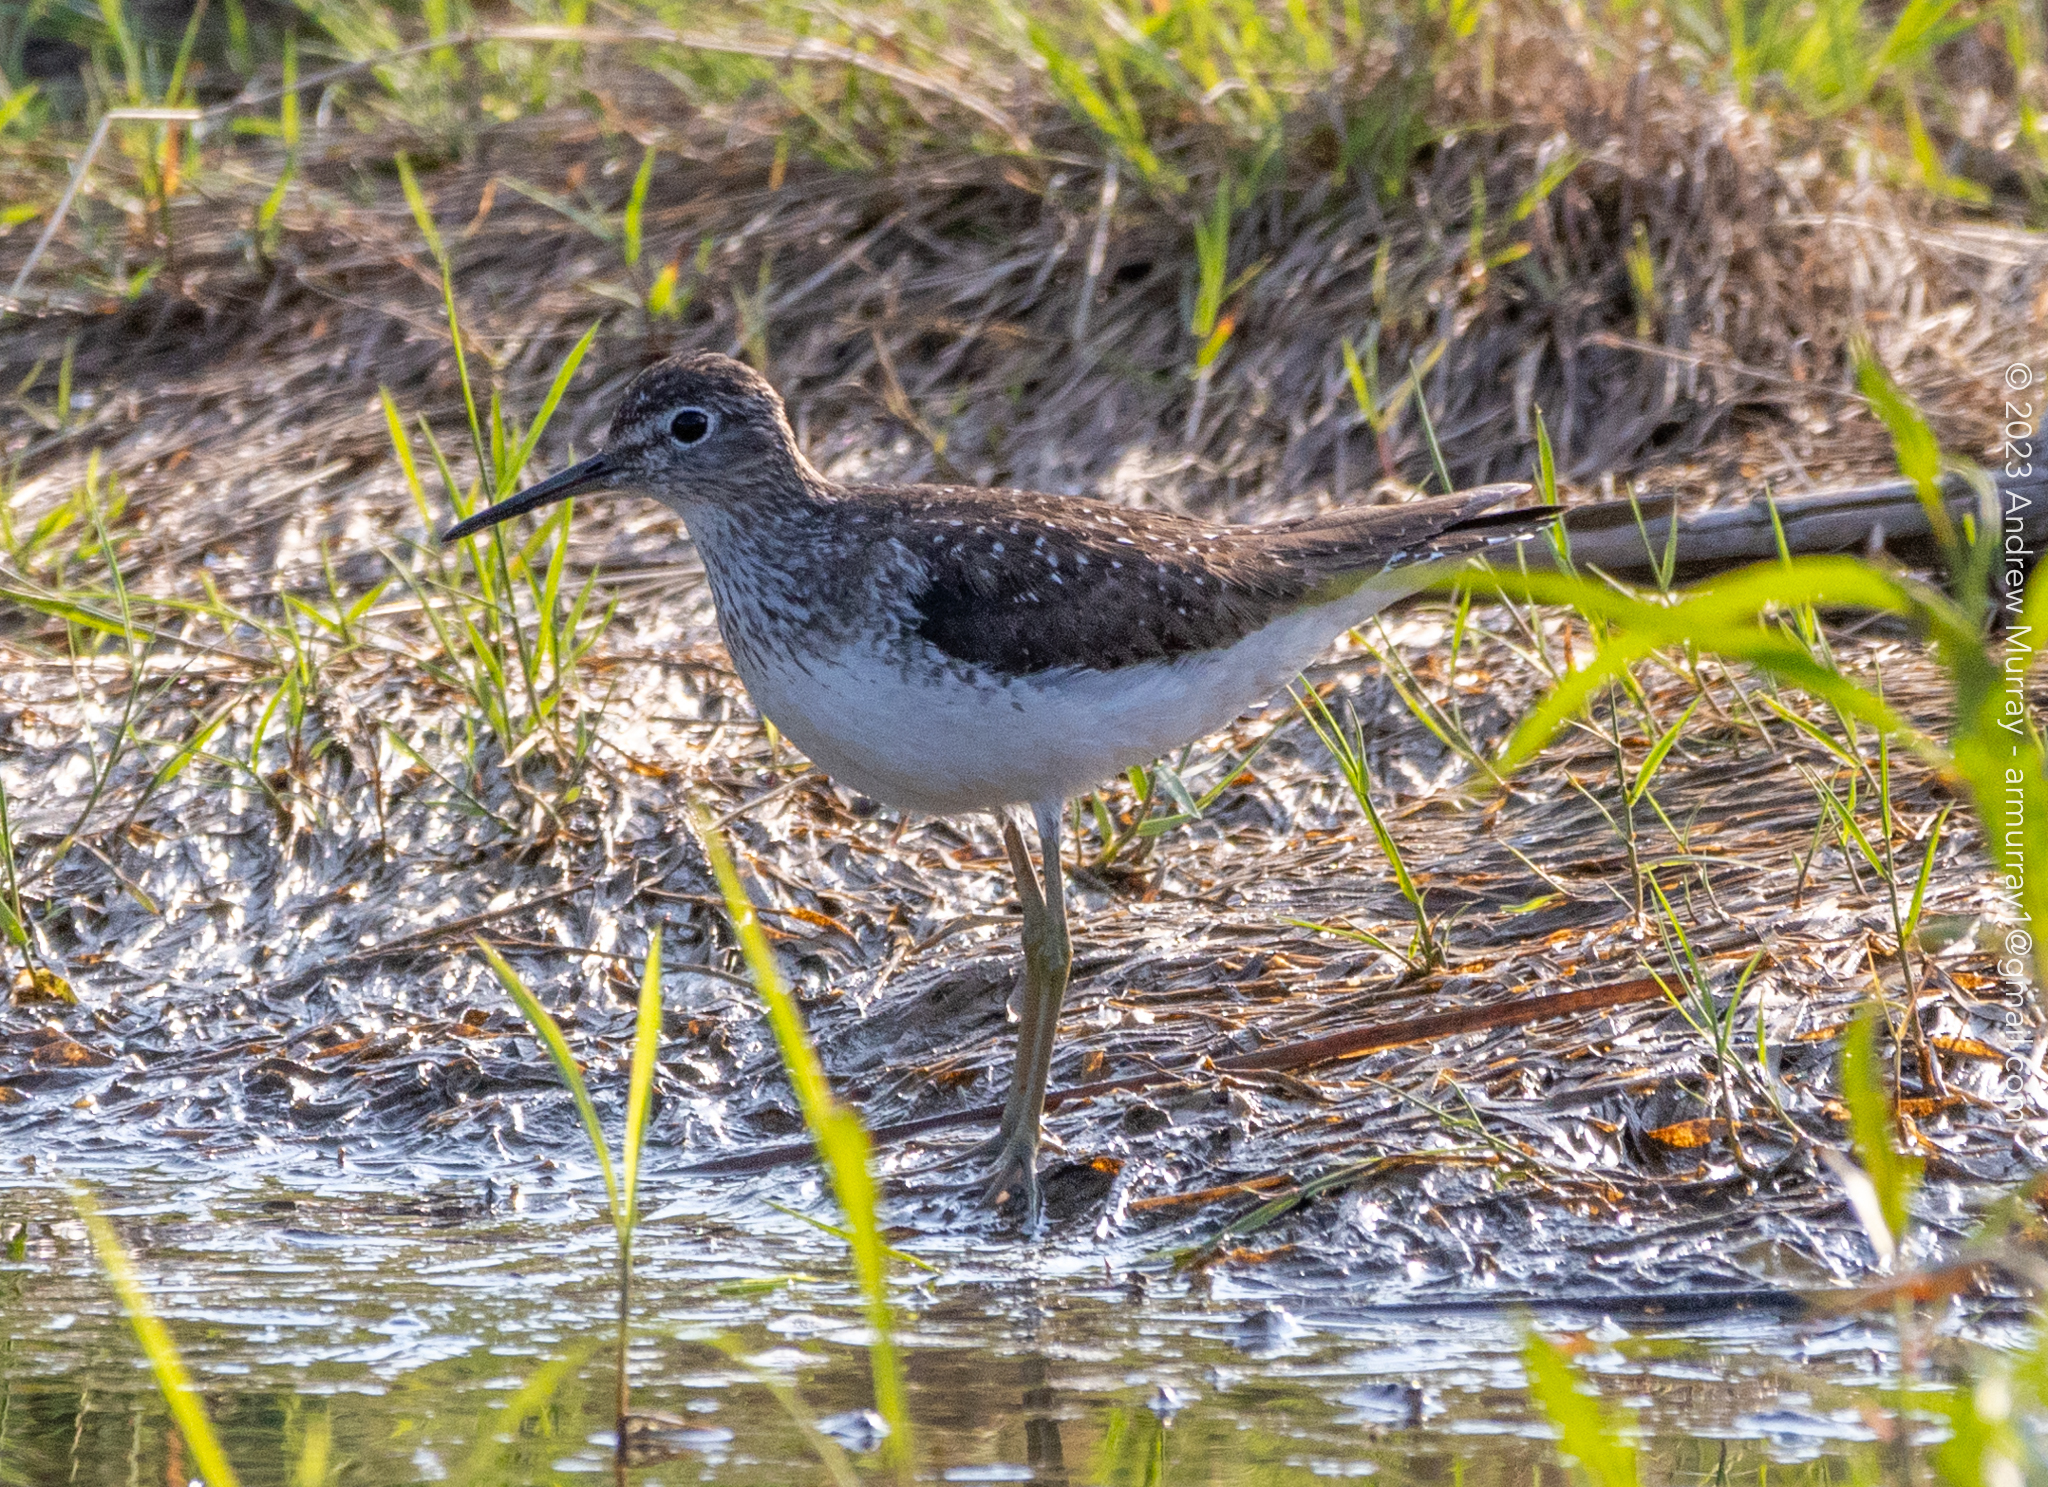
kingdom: Animalia
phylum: Chordata
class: Aves
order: Charadriiformes
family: Scolopacidae
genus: Tringa
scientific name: Tringa solitaria
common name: Solitary sandpiper
